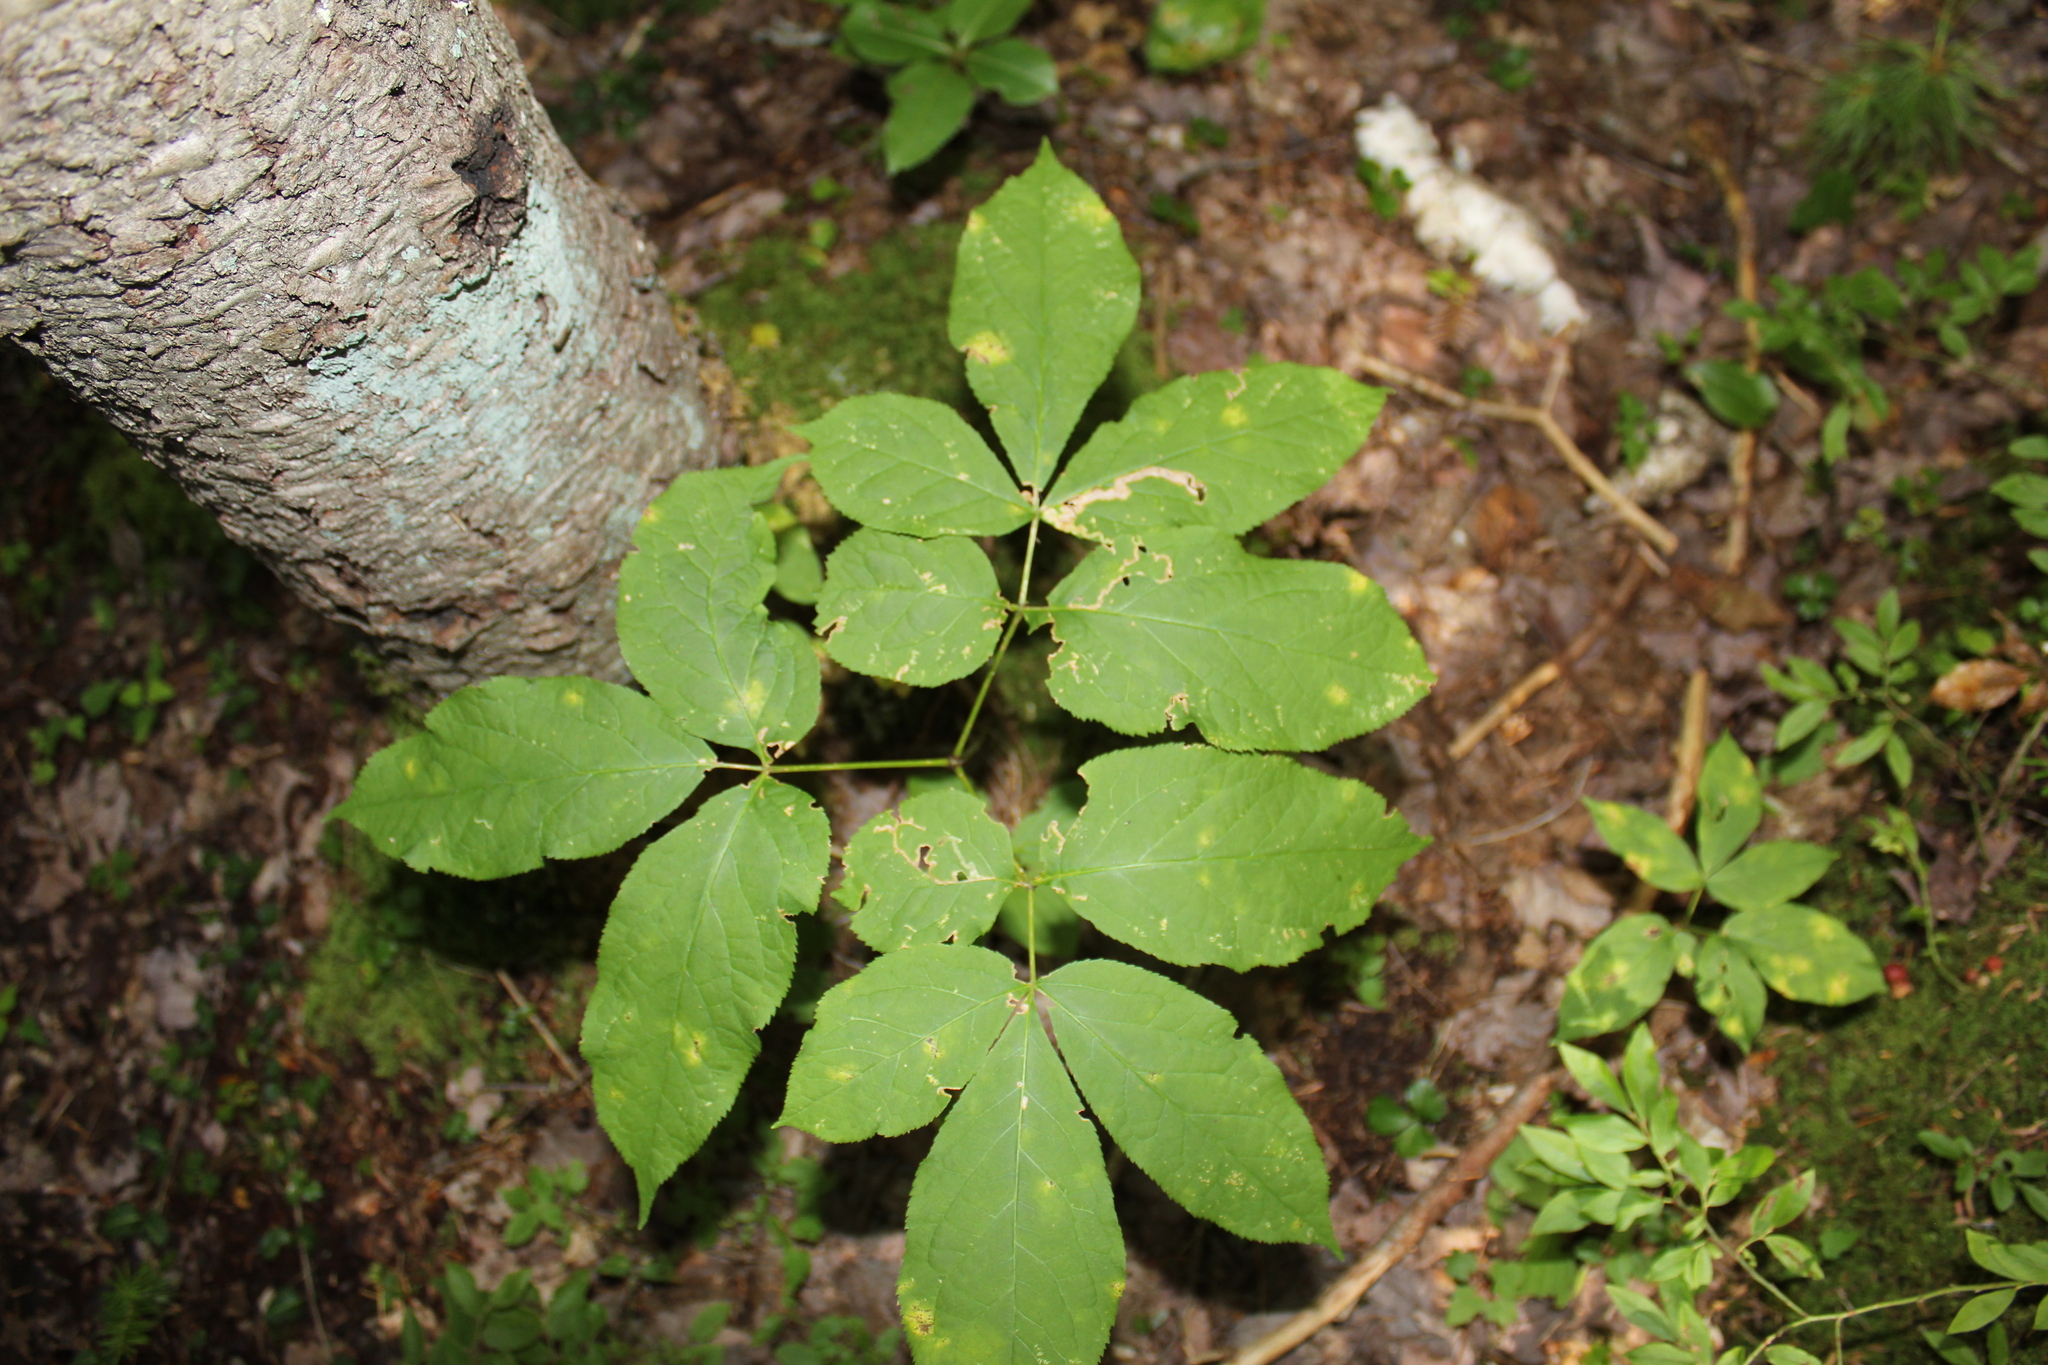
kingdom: Animalia
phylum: Arthropoda
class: Insecta
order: Diptera
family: Agromyzidae
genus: Phytomyza
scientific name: Phytomyza aralivora
